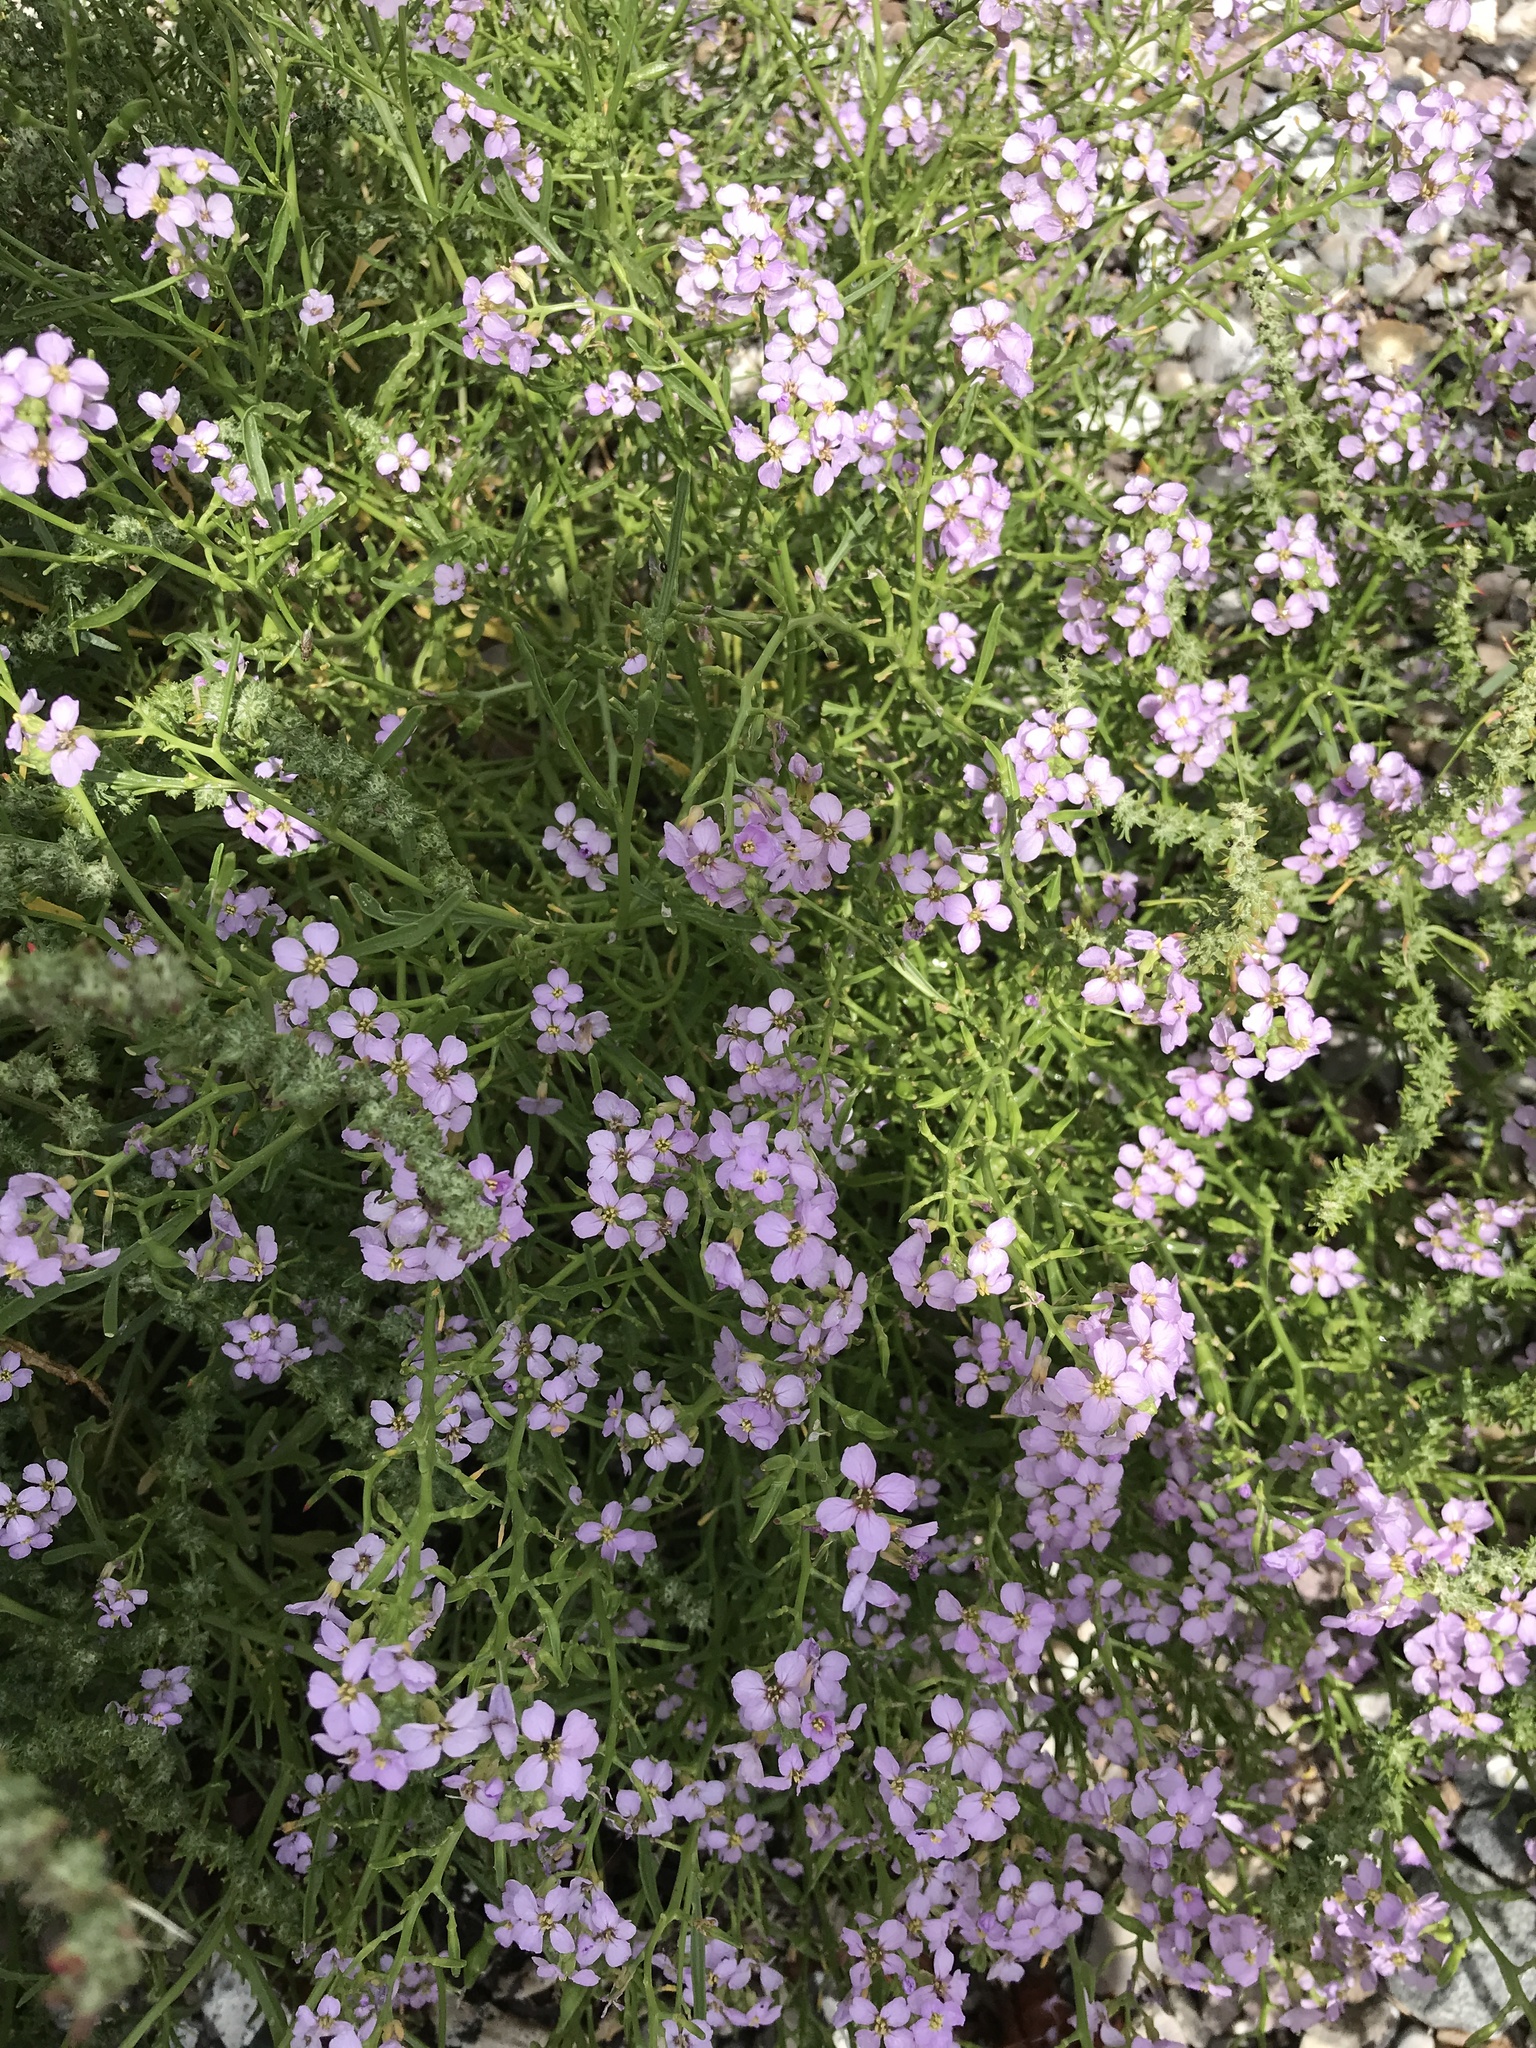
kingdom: Plantae
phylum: Tracheophyta
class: Magnoliopsida
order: Brassicales
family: Brassicaceae
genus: Cakile
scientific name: Cakile maritima
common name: Sea rocket
